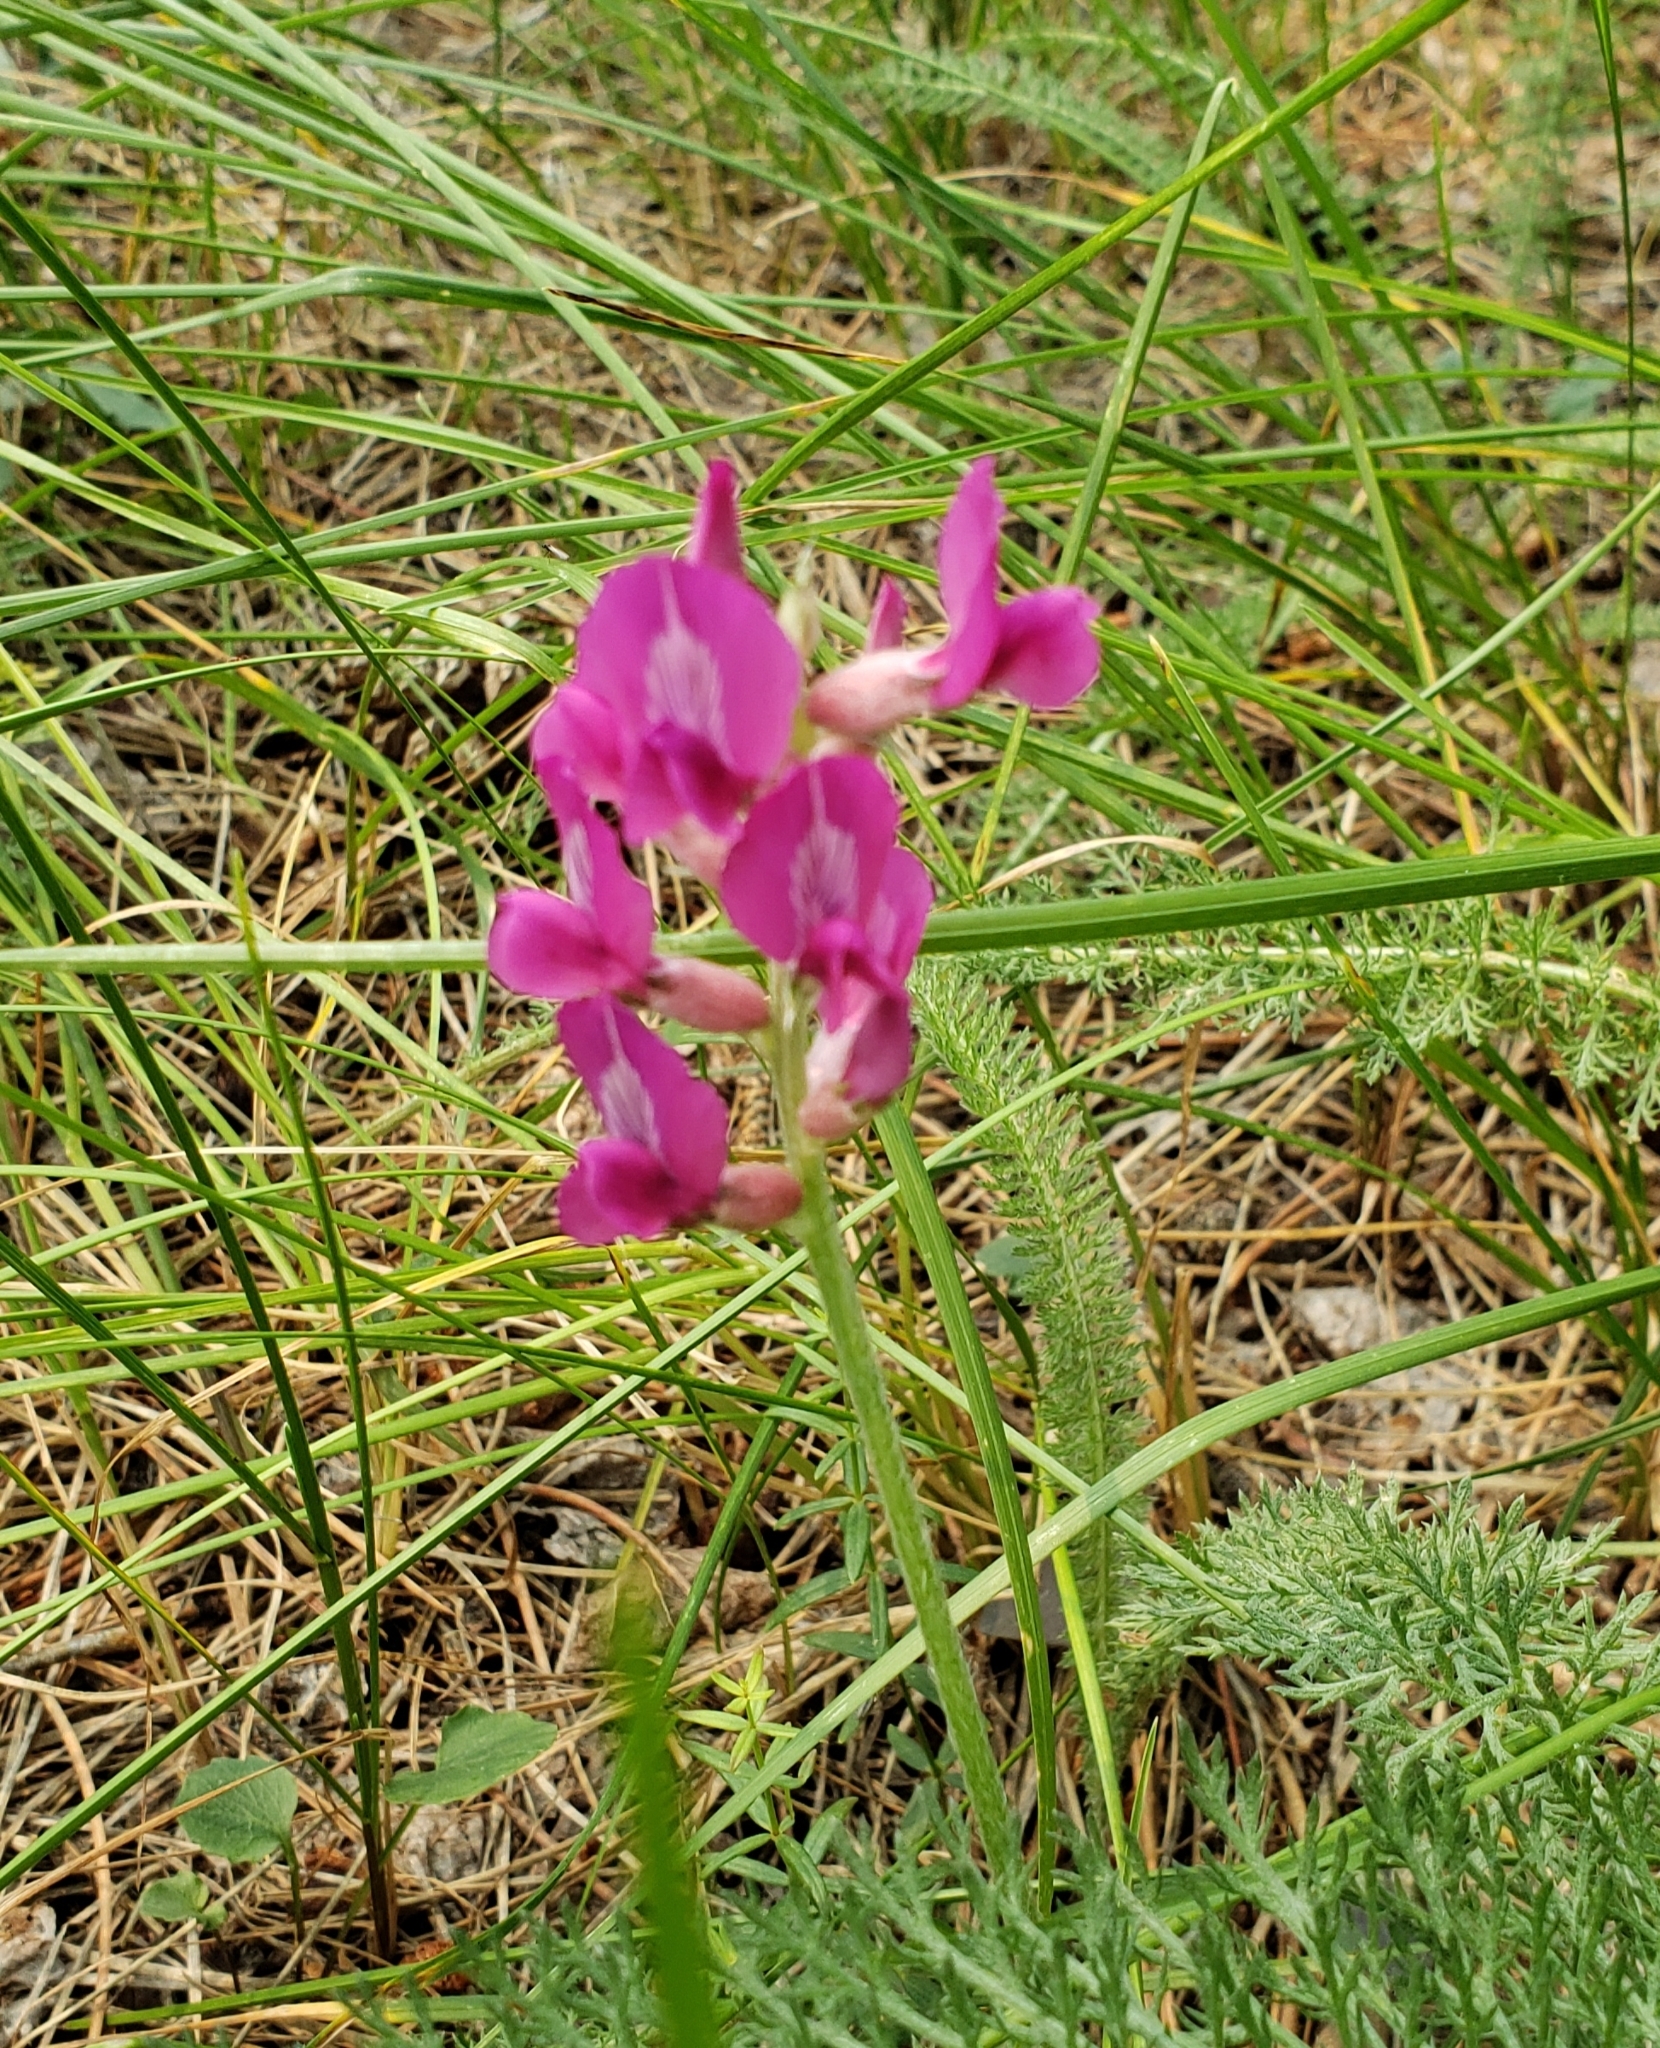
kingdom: Plantae
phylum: Tracheophyta
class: Magnoliopsida
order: Fabales
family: Fabaceae
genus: Oxytropis
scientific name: Oxytropis lambertii
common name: Purple locoweed
